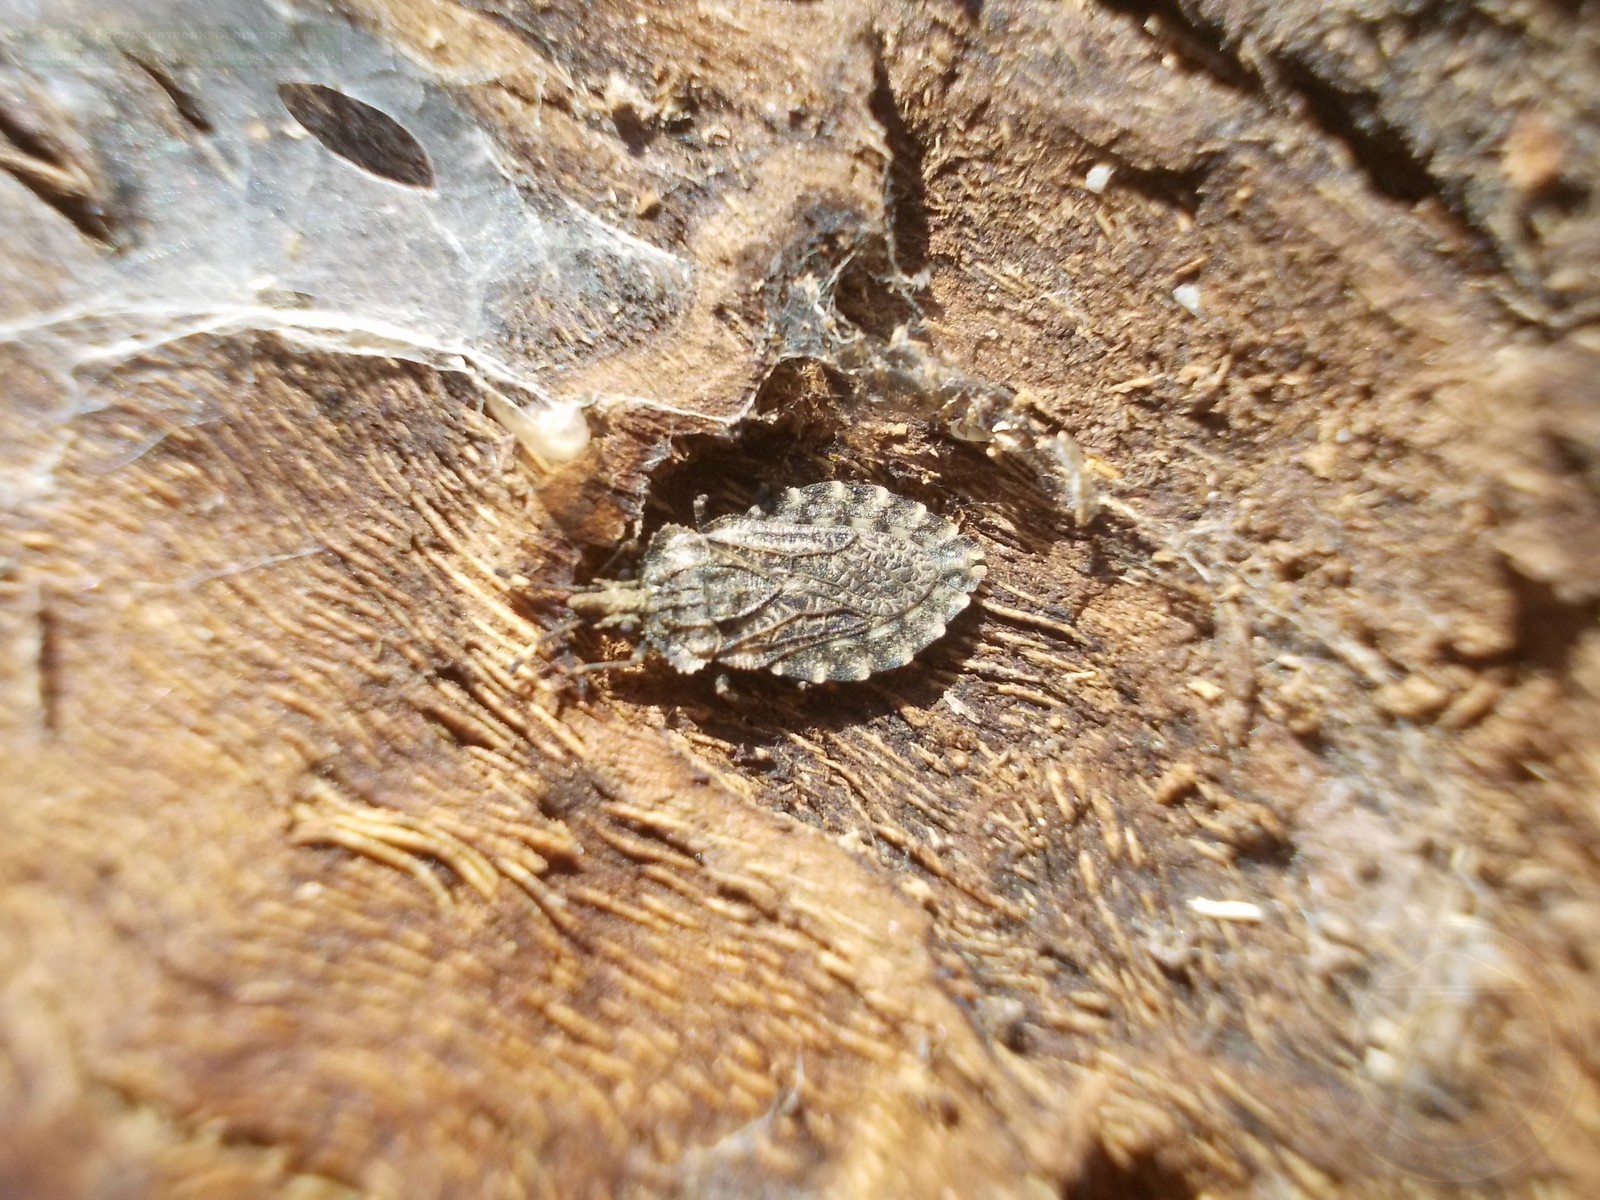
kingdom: Animalia
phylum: Arthropoda
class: Insecta
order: Hemiptera
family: Aradidae
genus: Aradus
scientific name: Aradus hieroglyphicus
